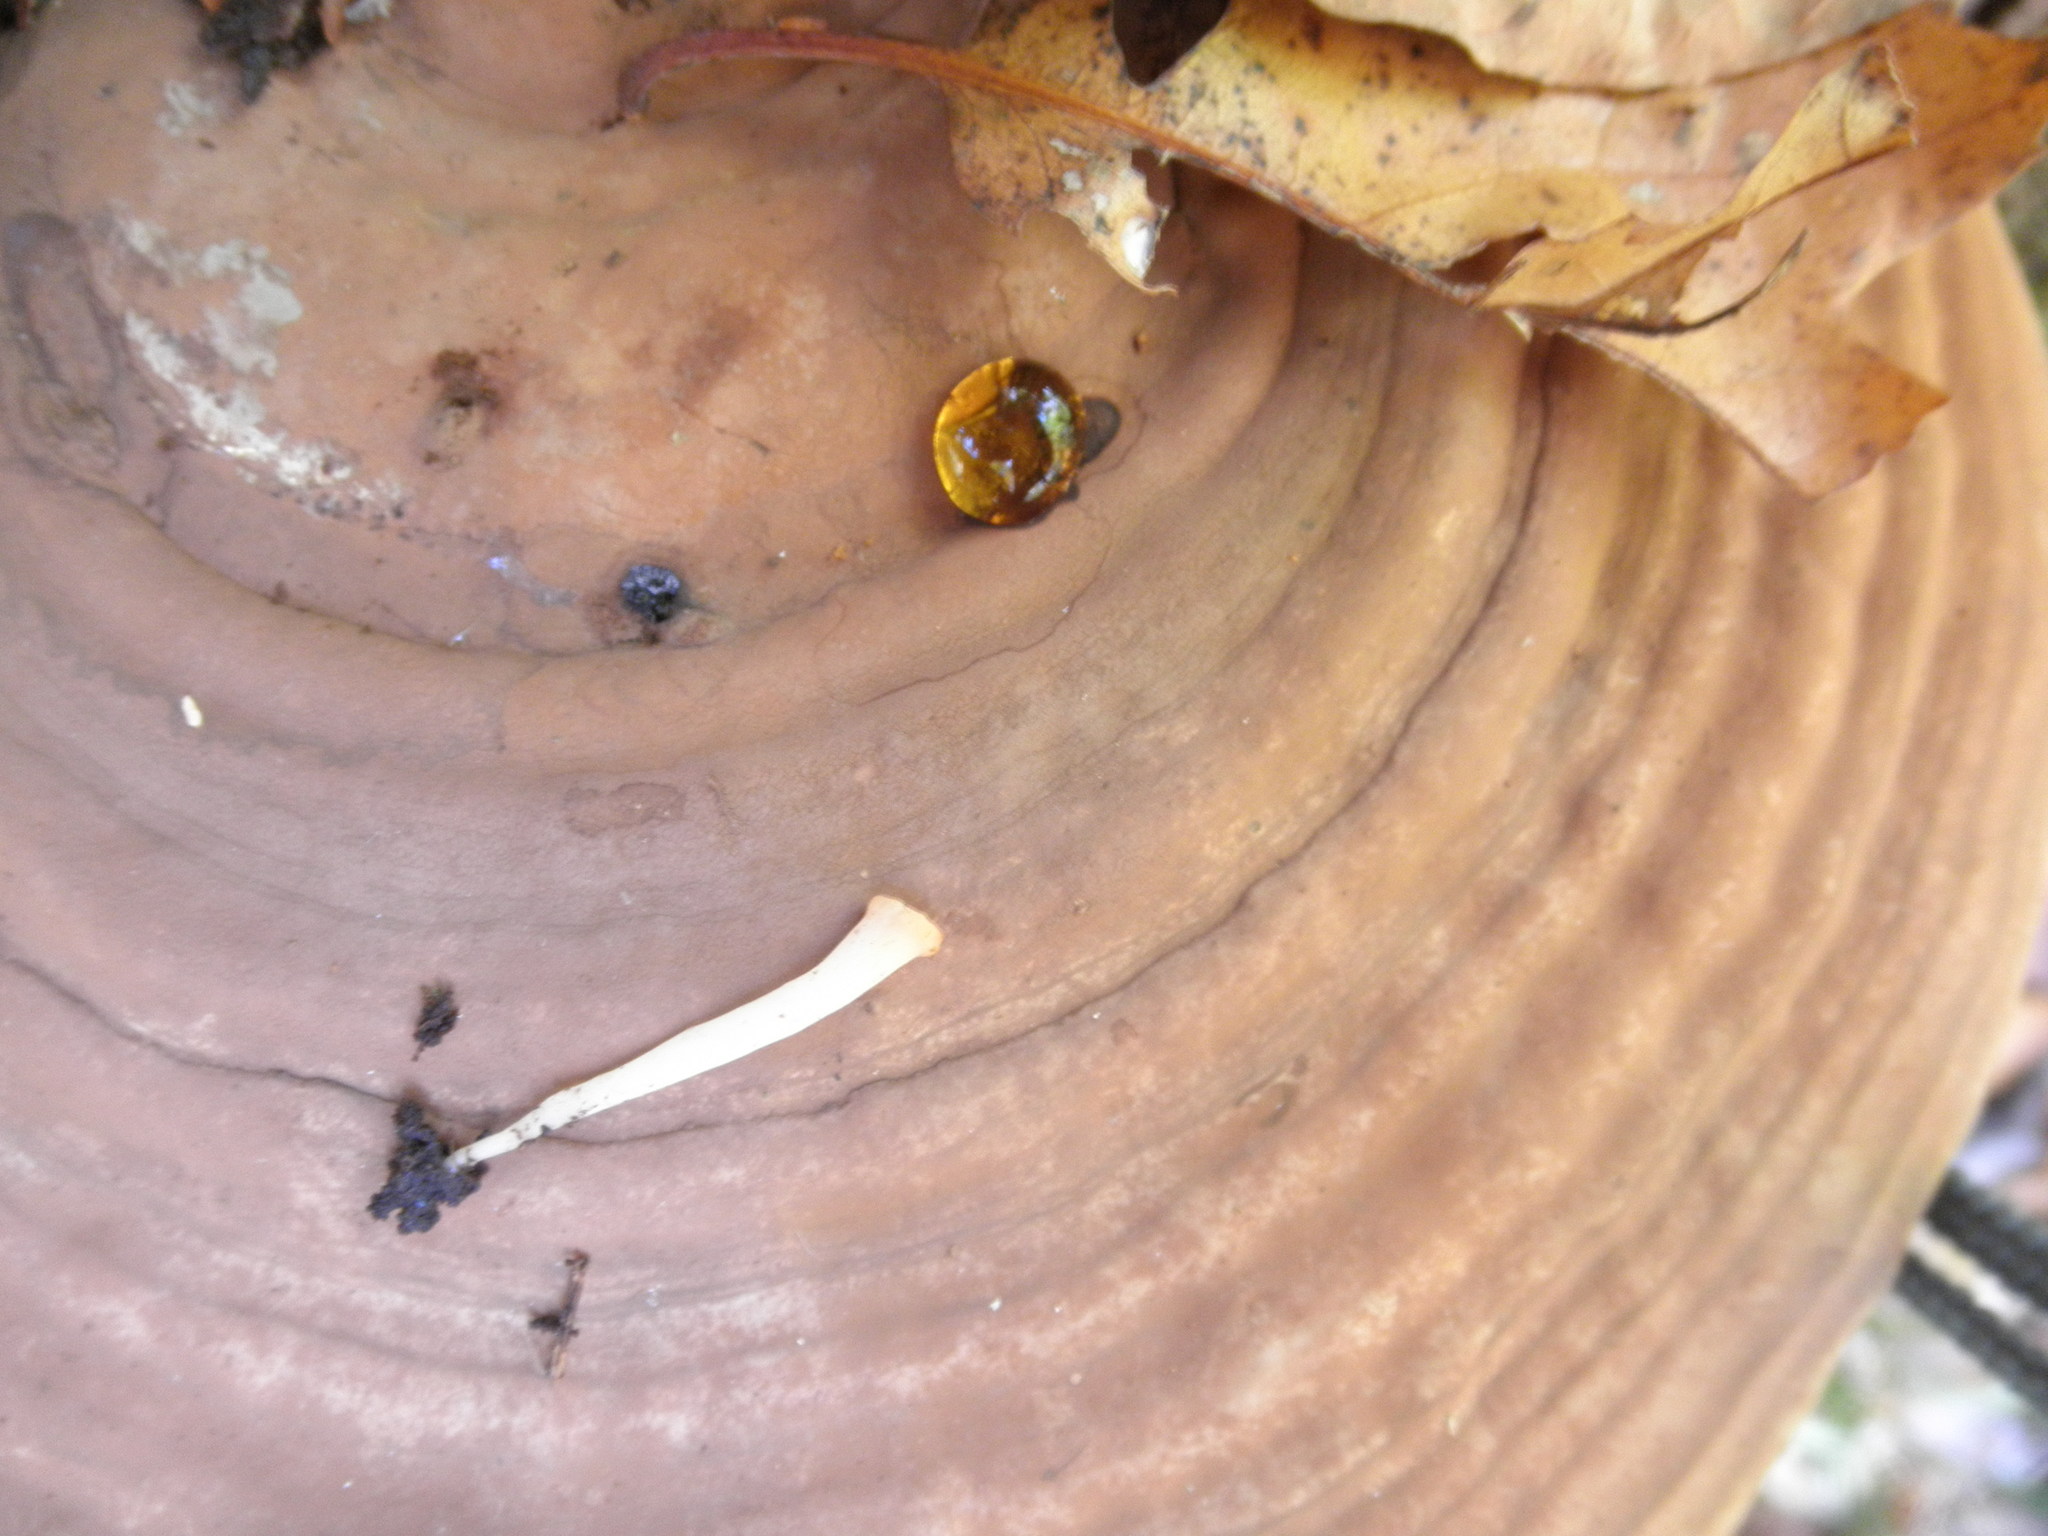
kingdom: Fungi
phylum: Basidiomycota
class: Agaricomycetes
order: Agaricales
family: Clavariaceae
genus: Clavaria
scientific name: Clavaria fragilis
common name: White spindles
